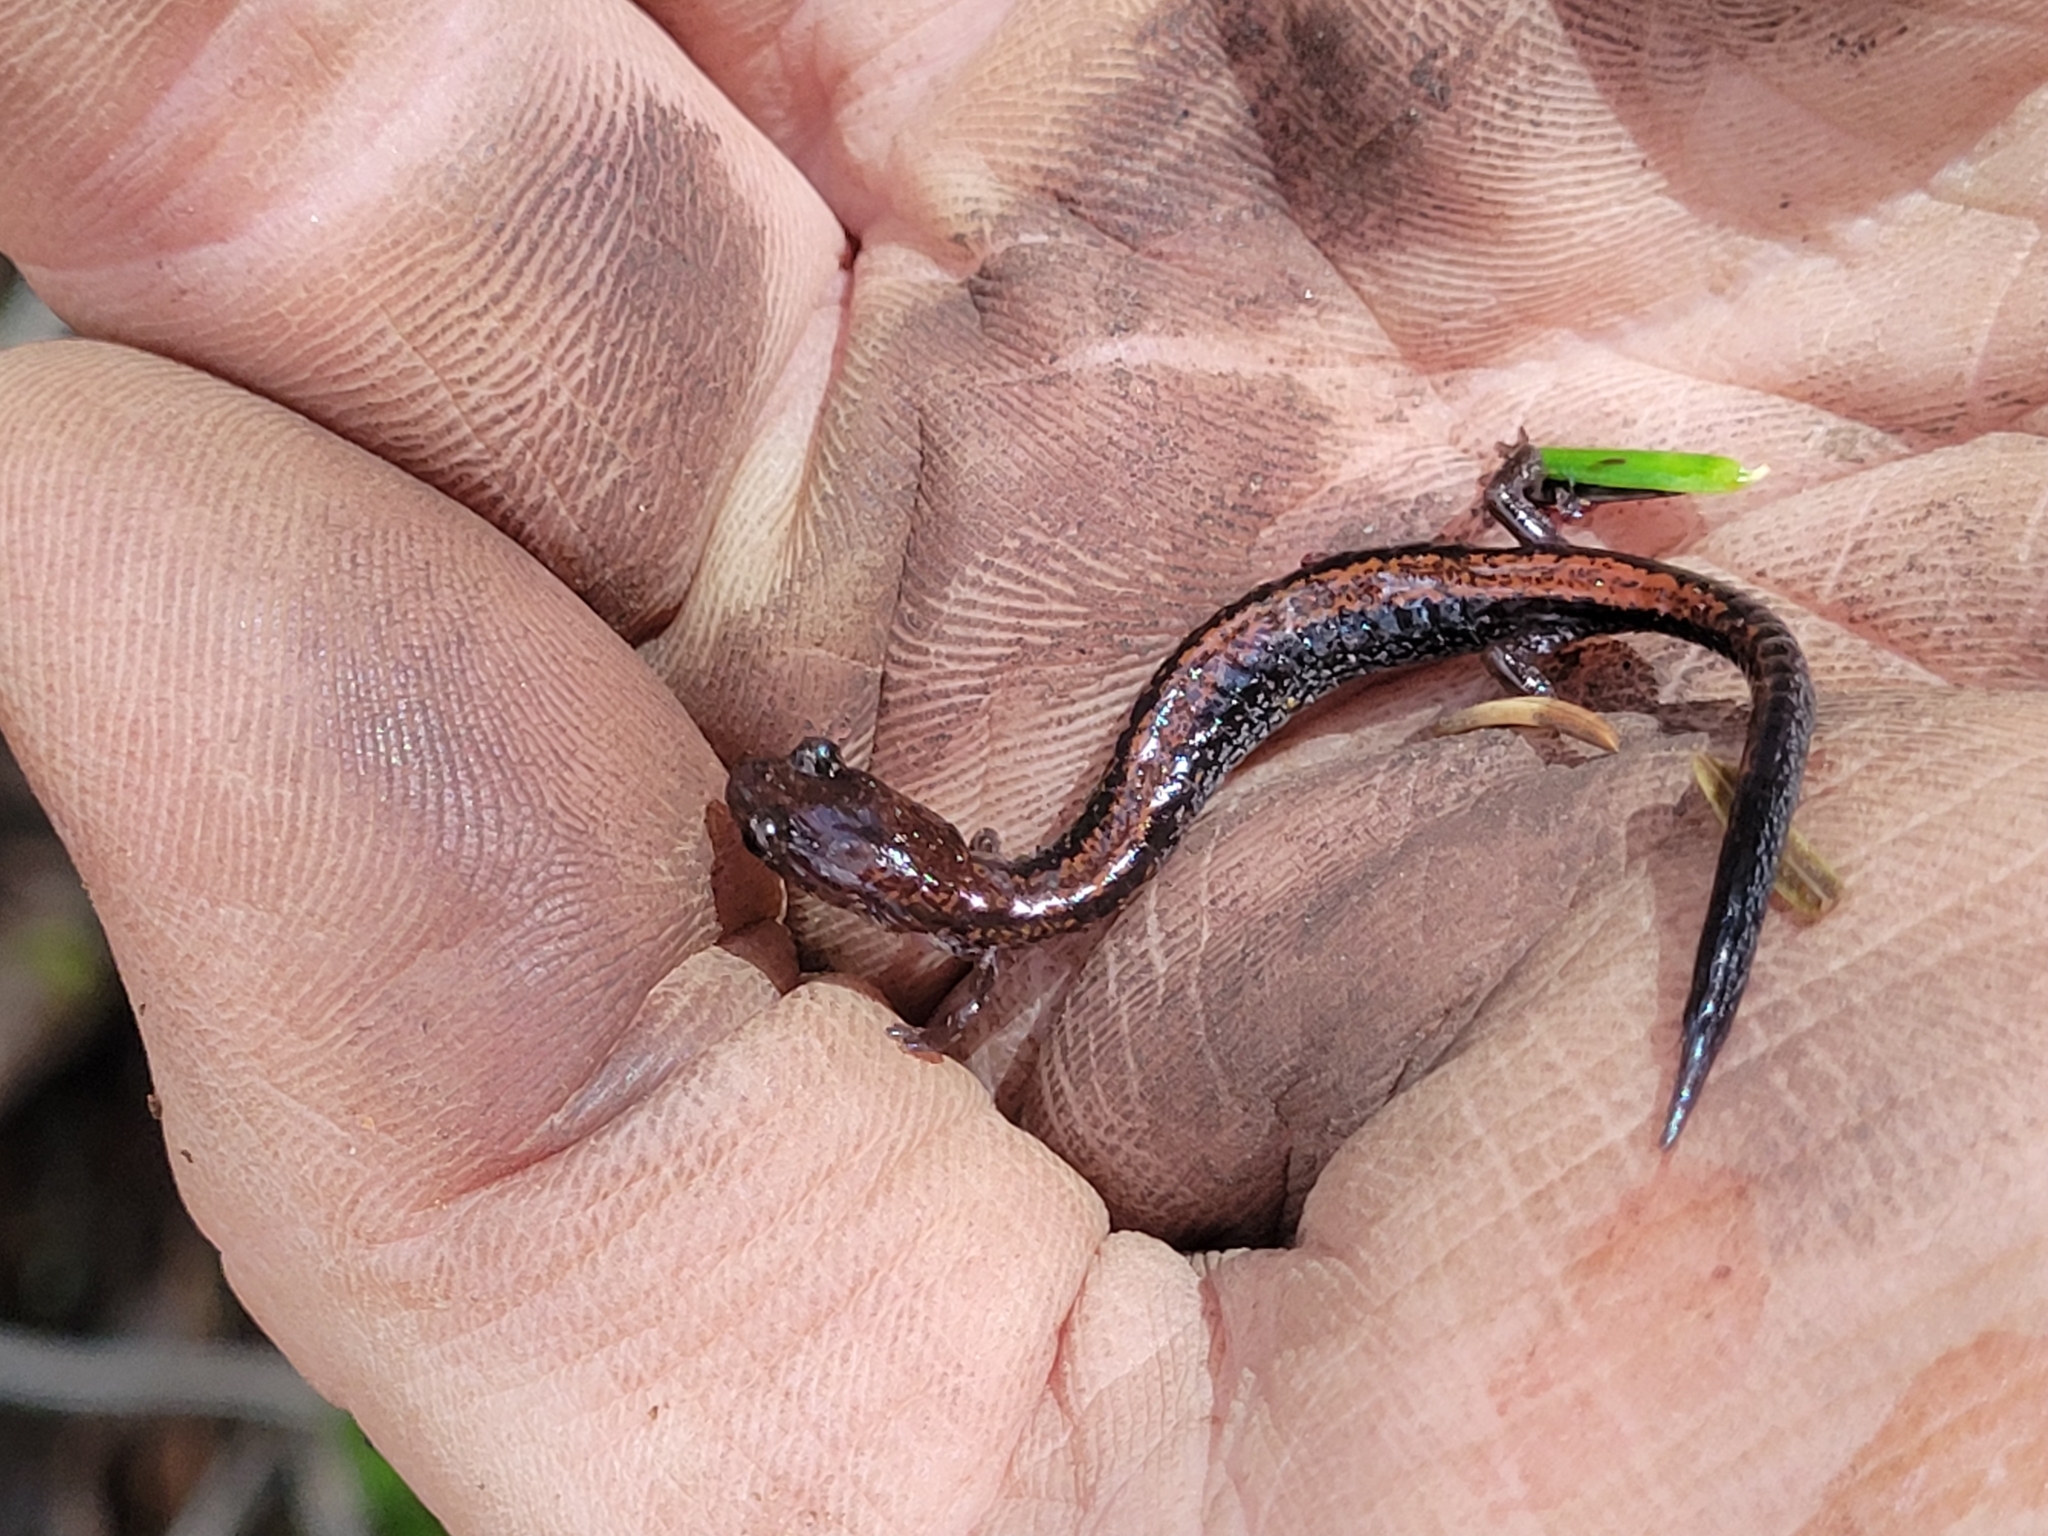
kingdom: Animalia
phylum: Chordata
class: Amphibia
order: Caudata
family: Plethodontidae
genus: Plethodon
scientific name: Plethodon cinereus
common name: Redback salamander
